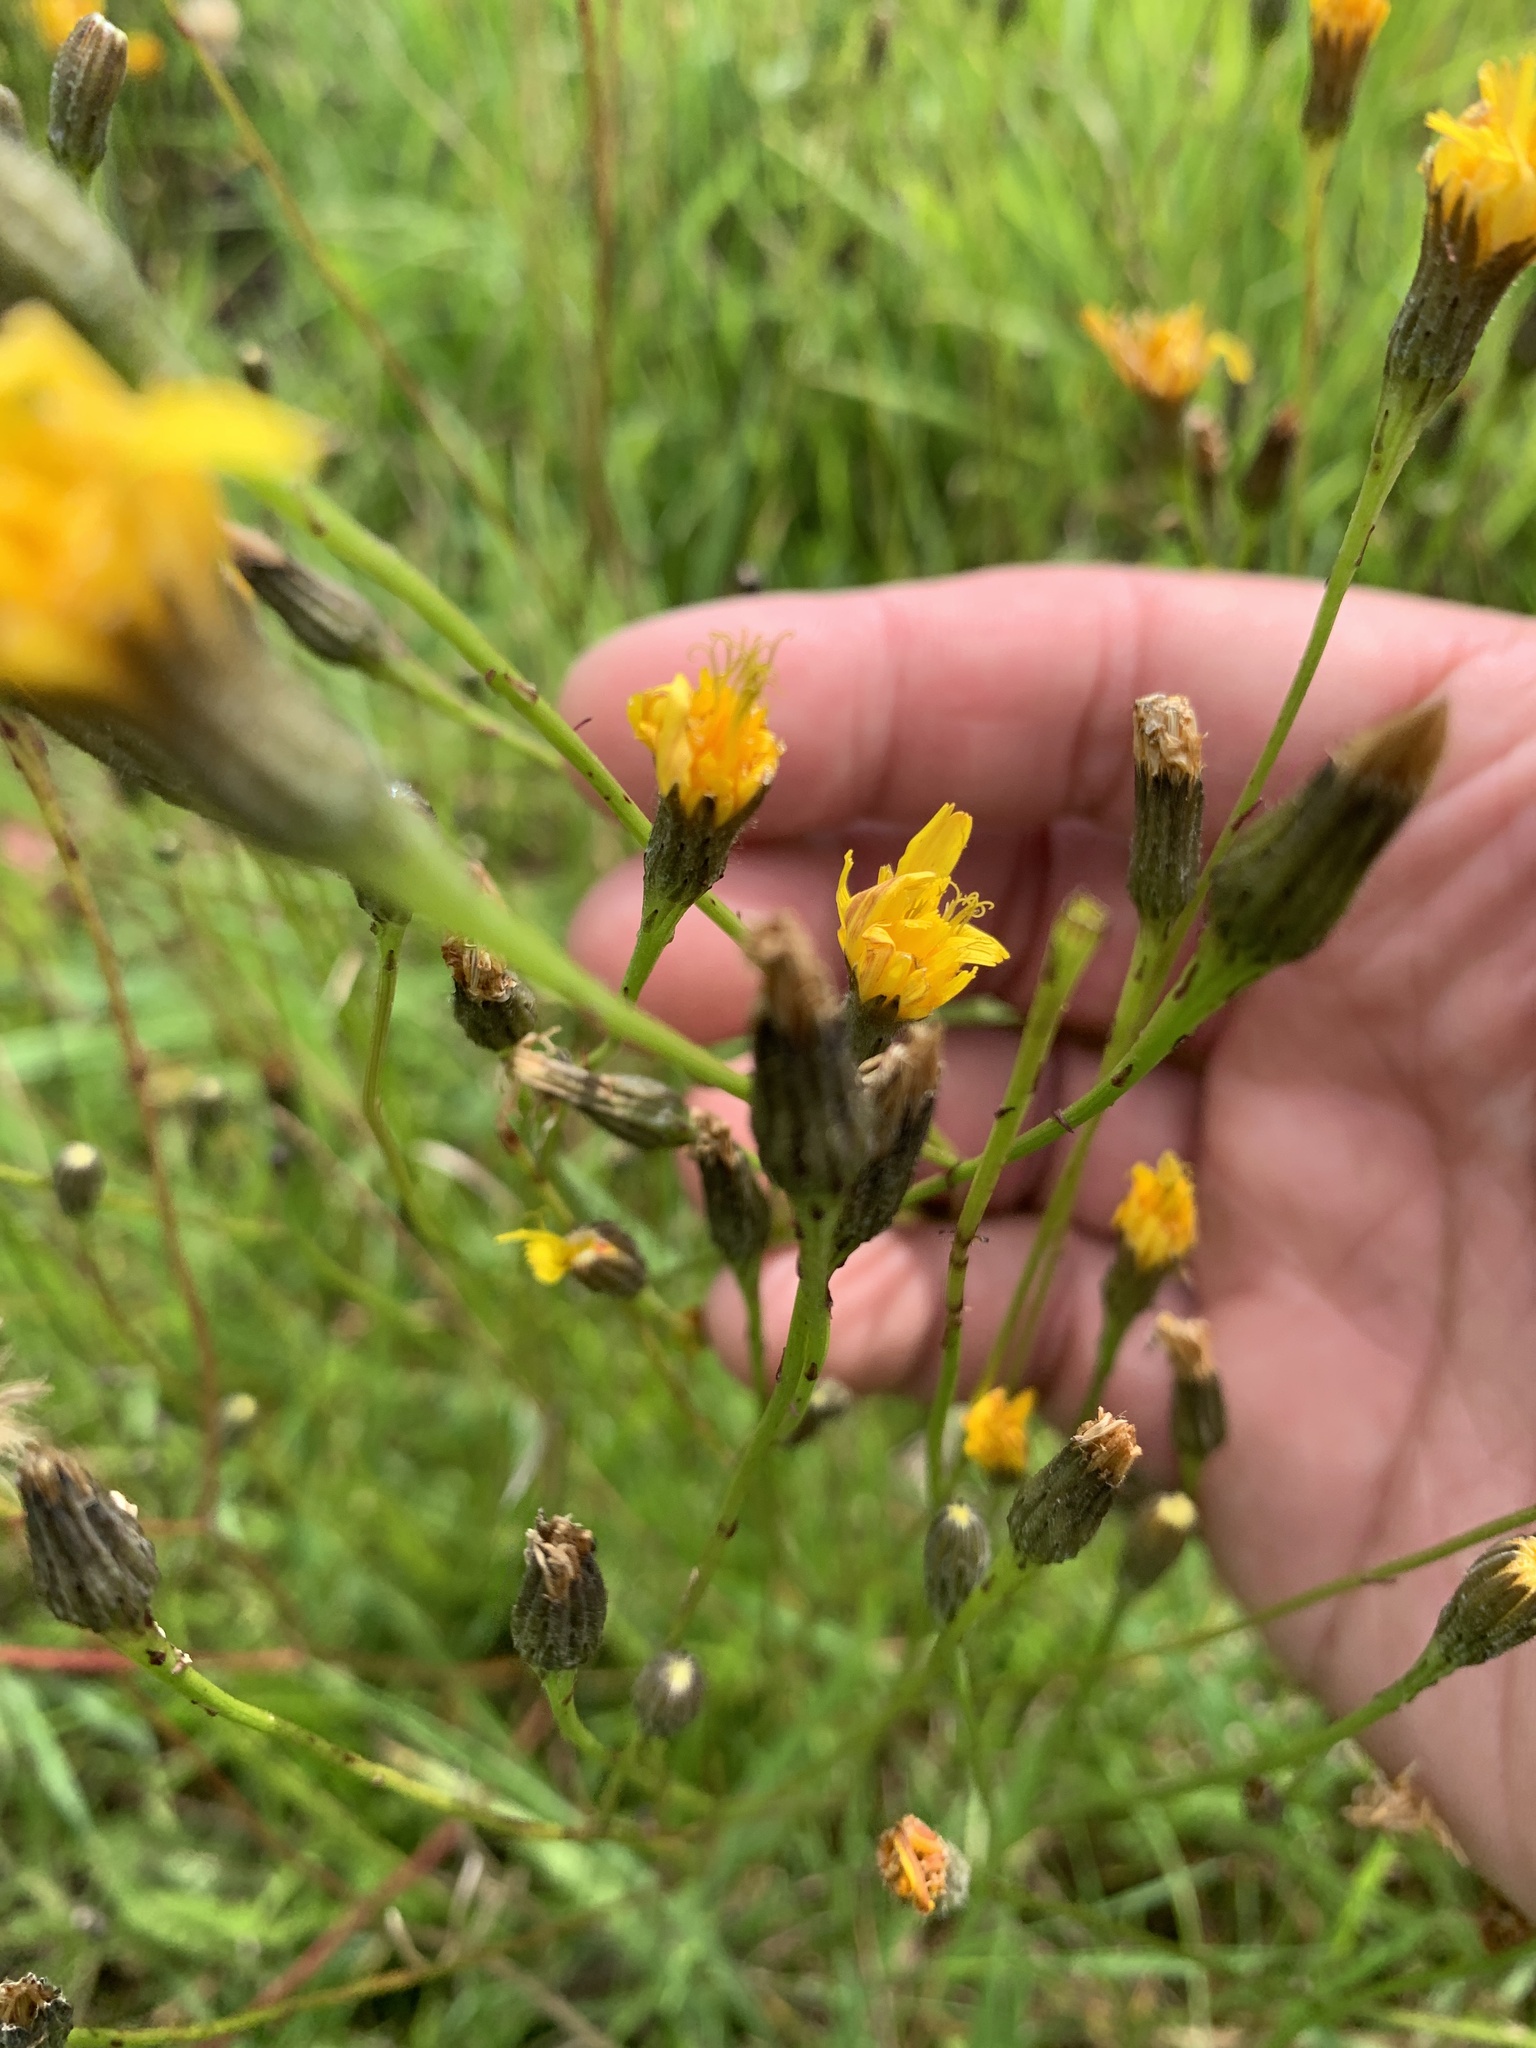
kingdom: Plantae
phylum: Tracheophyta
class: Magnoliopsida
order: Asterales
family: Asteraceae
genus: Scorzoneroides
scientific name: Scorzoneroides autumnalis
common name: Autumn hawkbit
